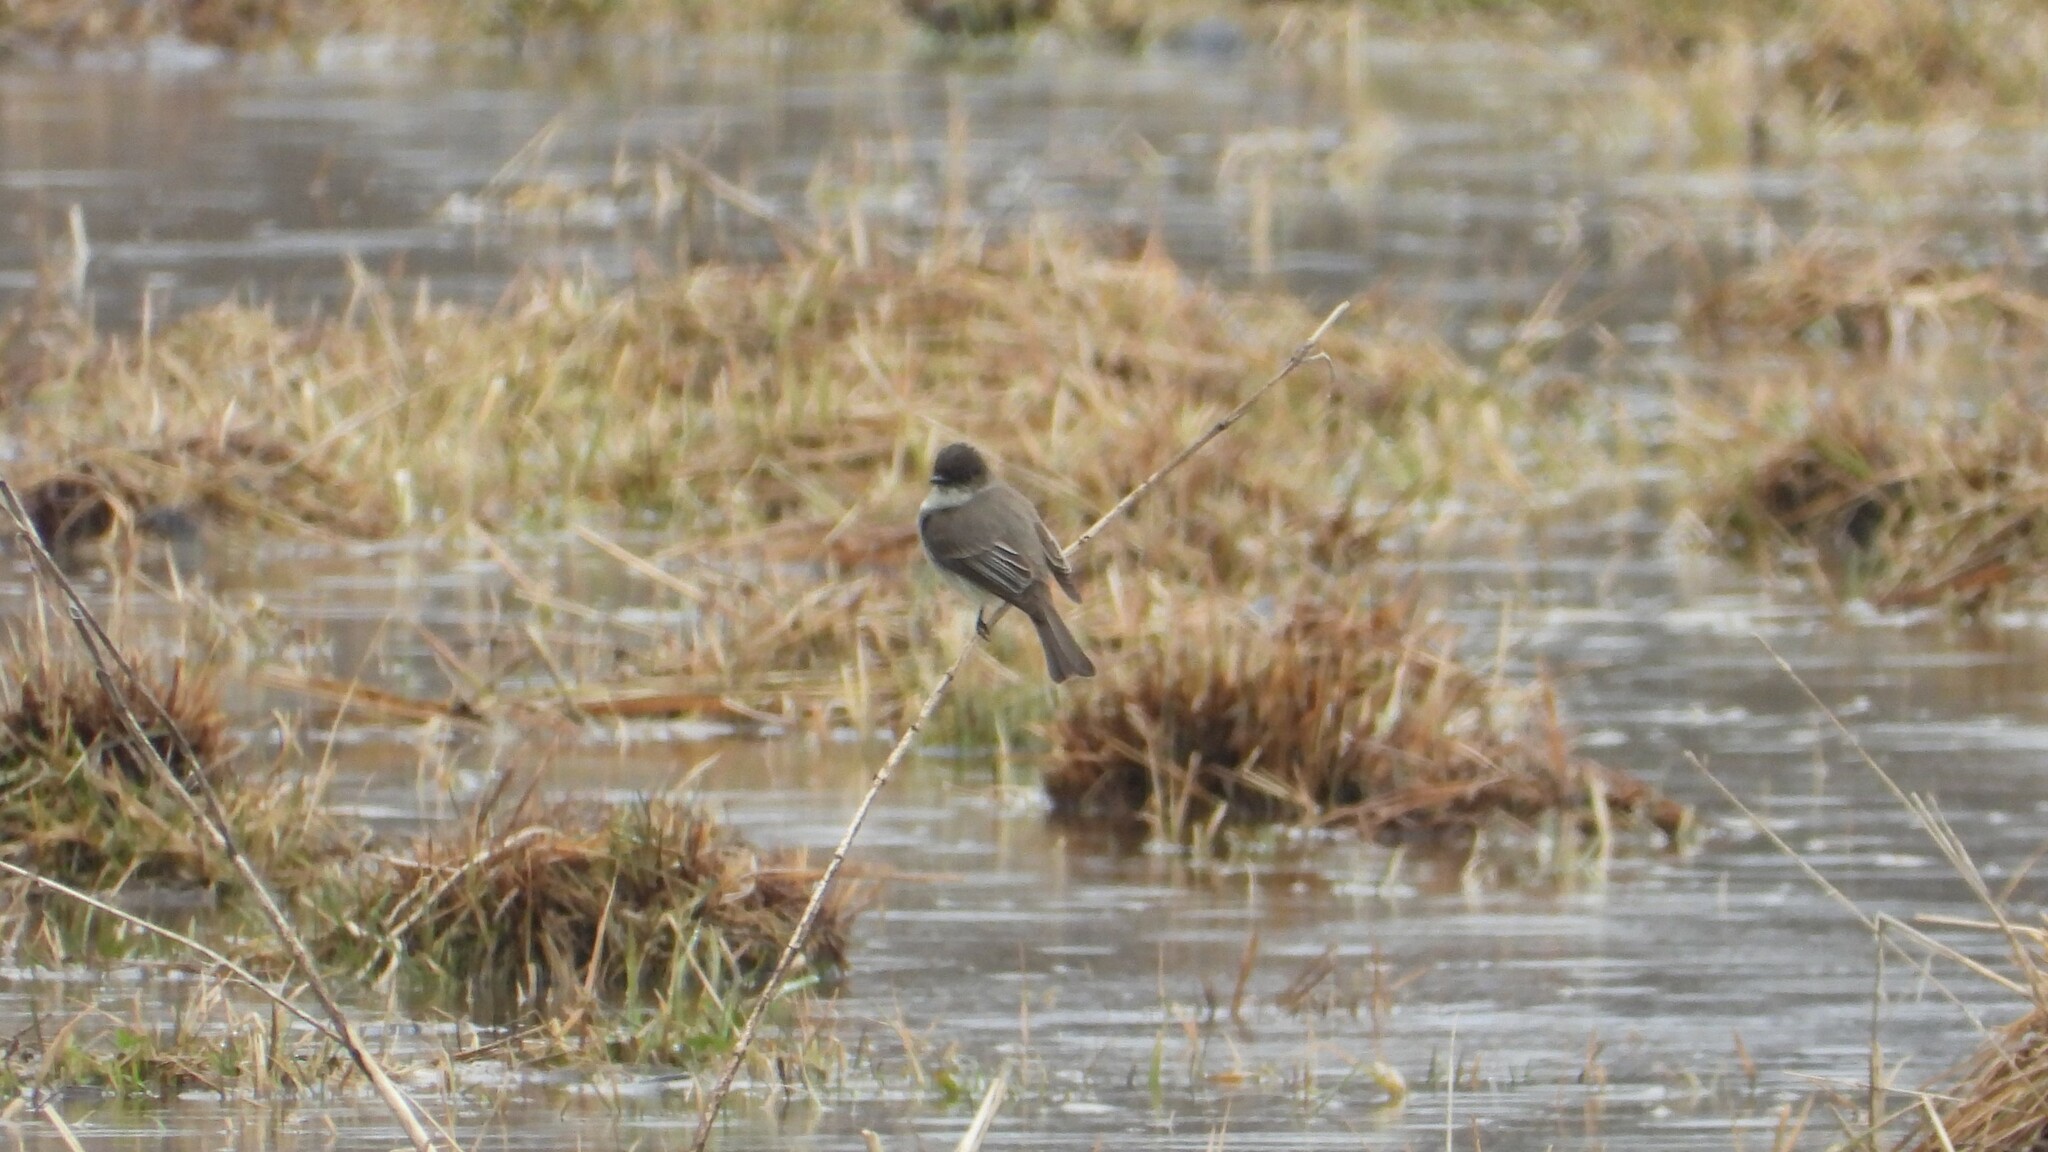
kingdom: Animalia
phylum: Chordata
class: Aves
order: Passeriformes
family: Tyrannidae
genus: Sayornis
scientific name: Sayornis phoebe
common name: Eastern phoebe
